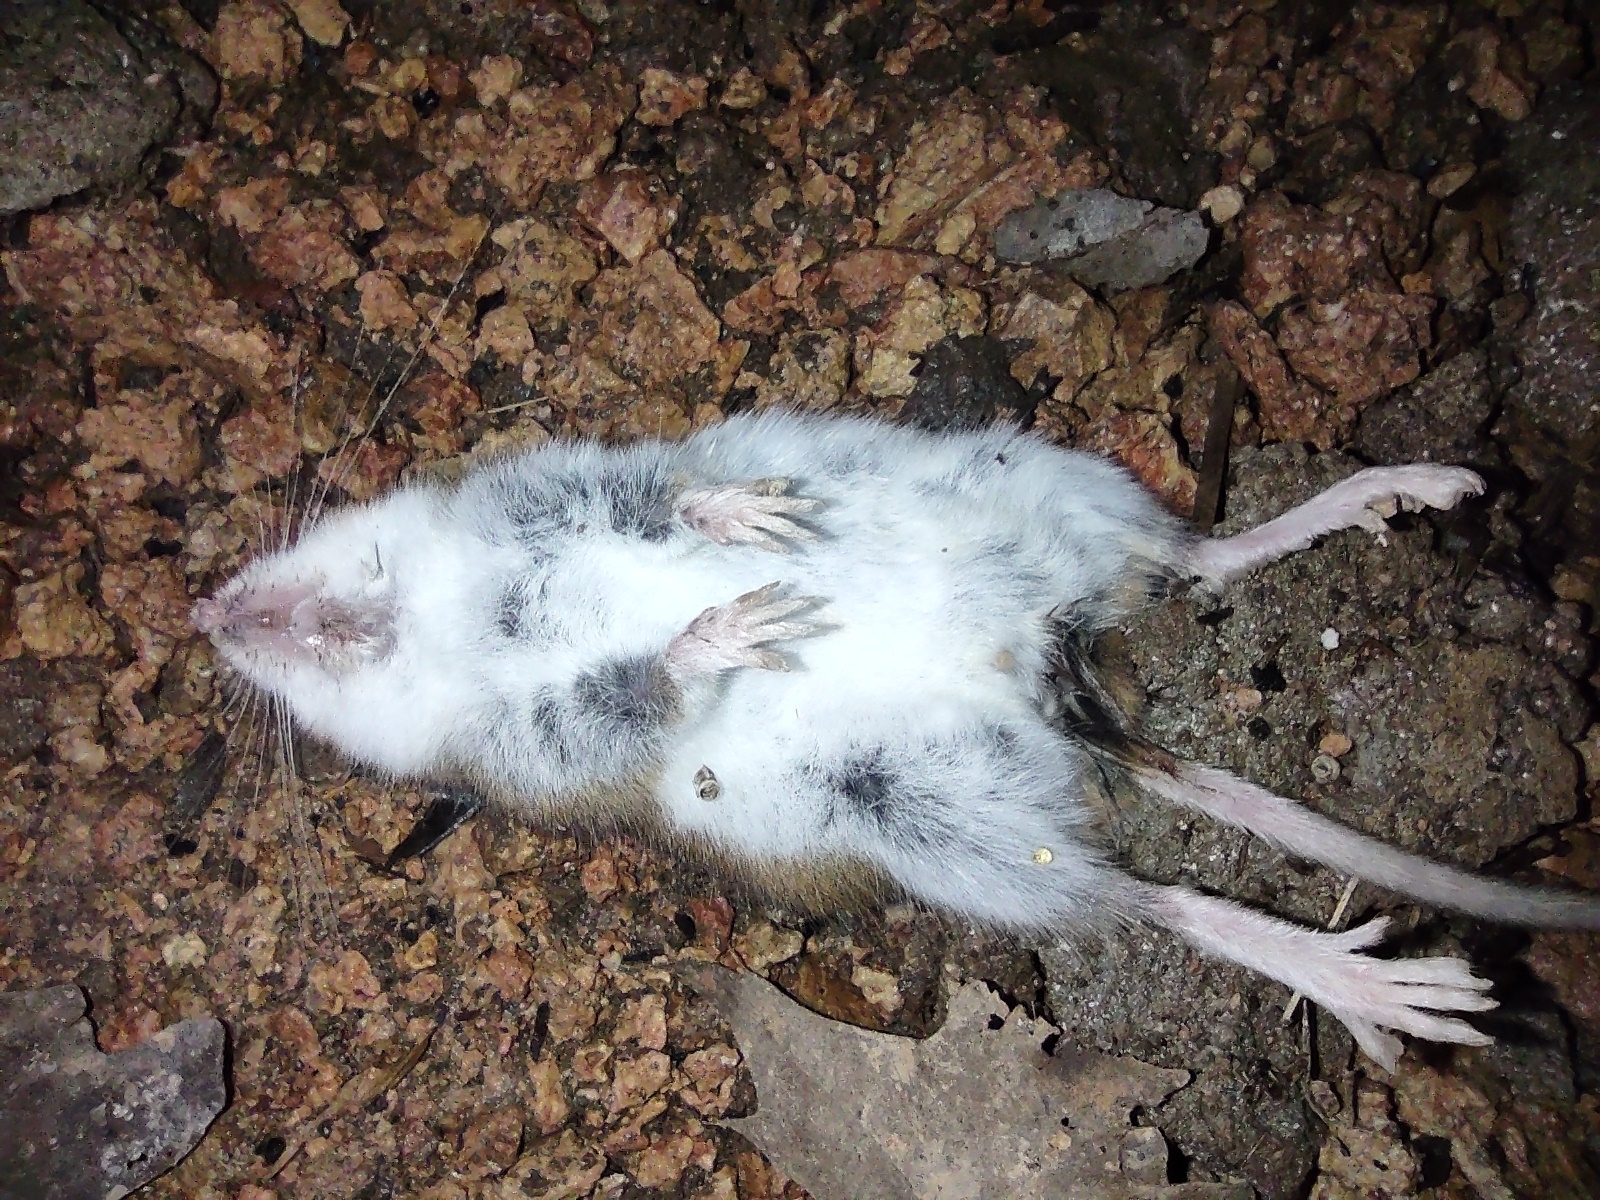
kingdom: Animalia
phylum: Chordata
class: Mammalia
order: Rodentia
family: Cricetidae
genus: Peromyscus
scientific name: Peromyscus leucopus
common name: White-footed deermouse
